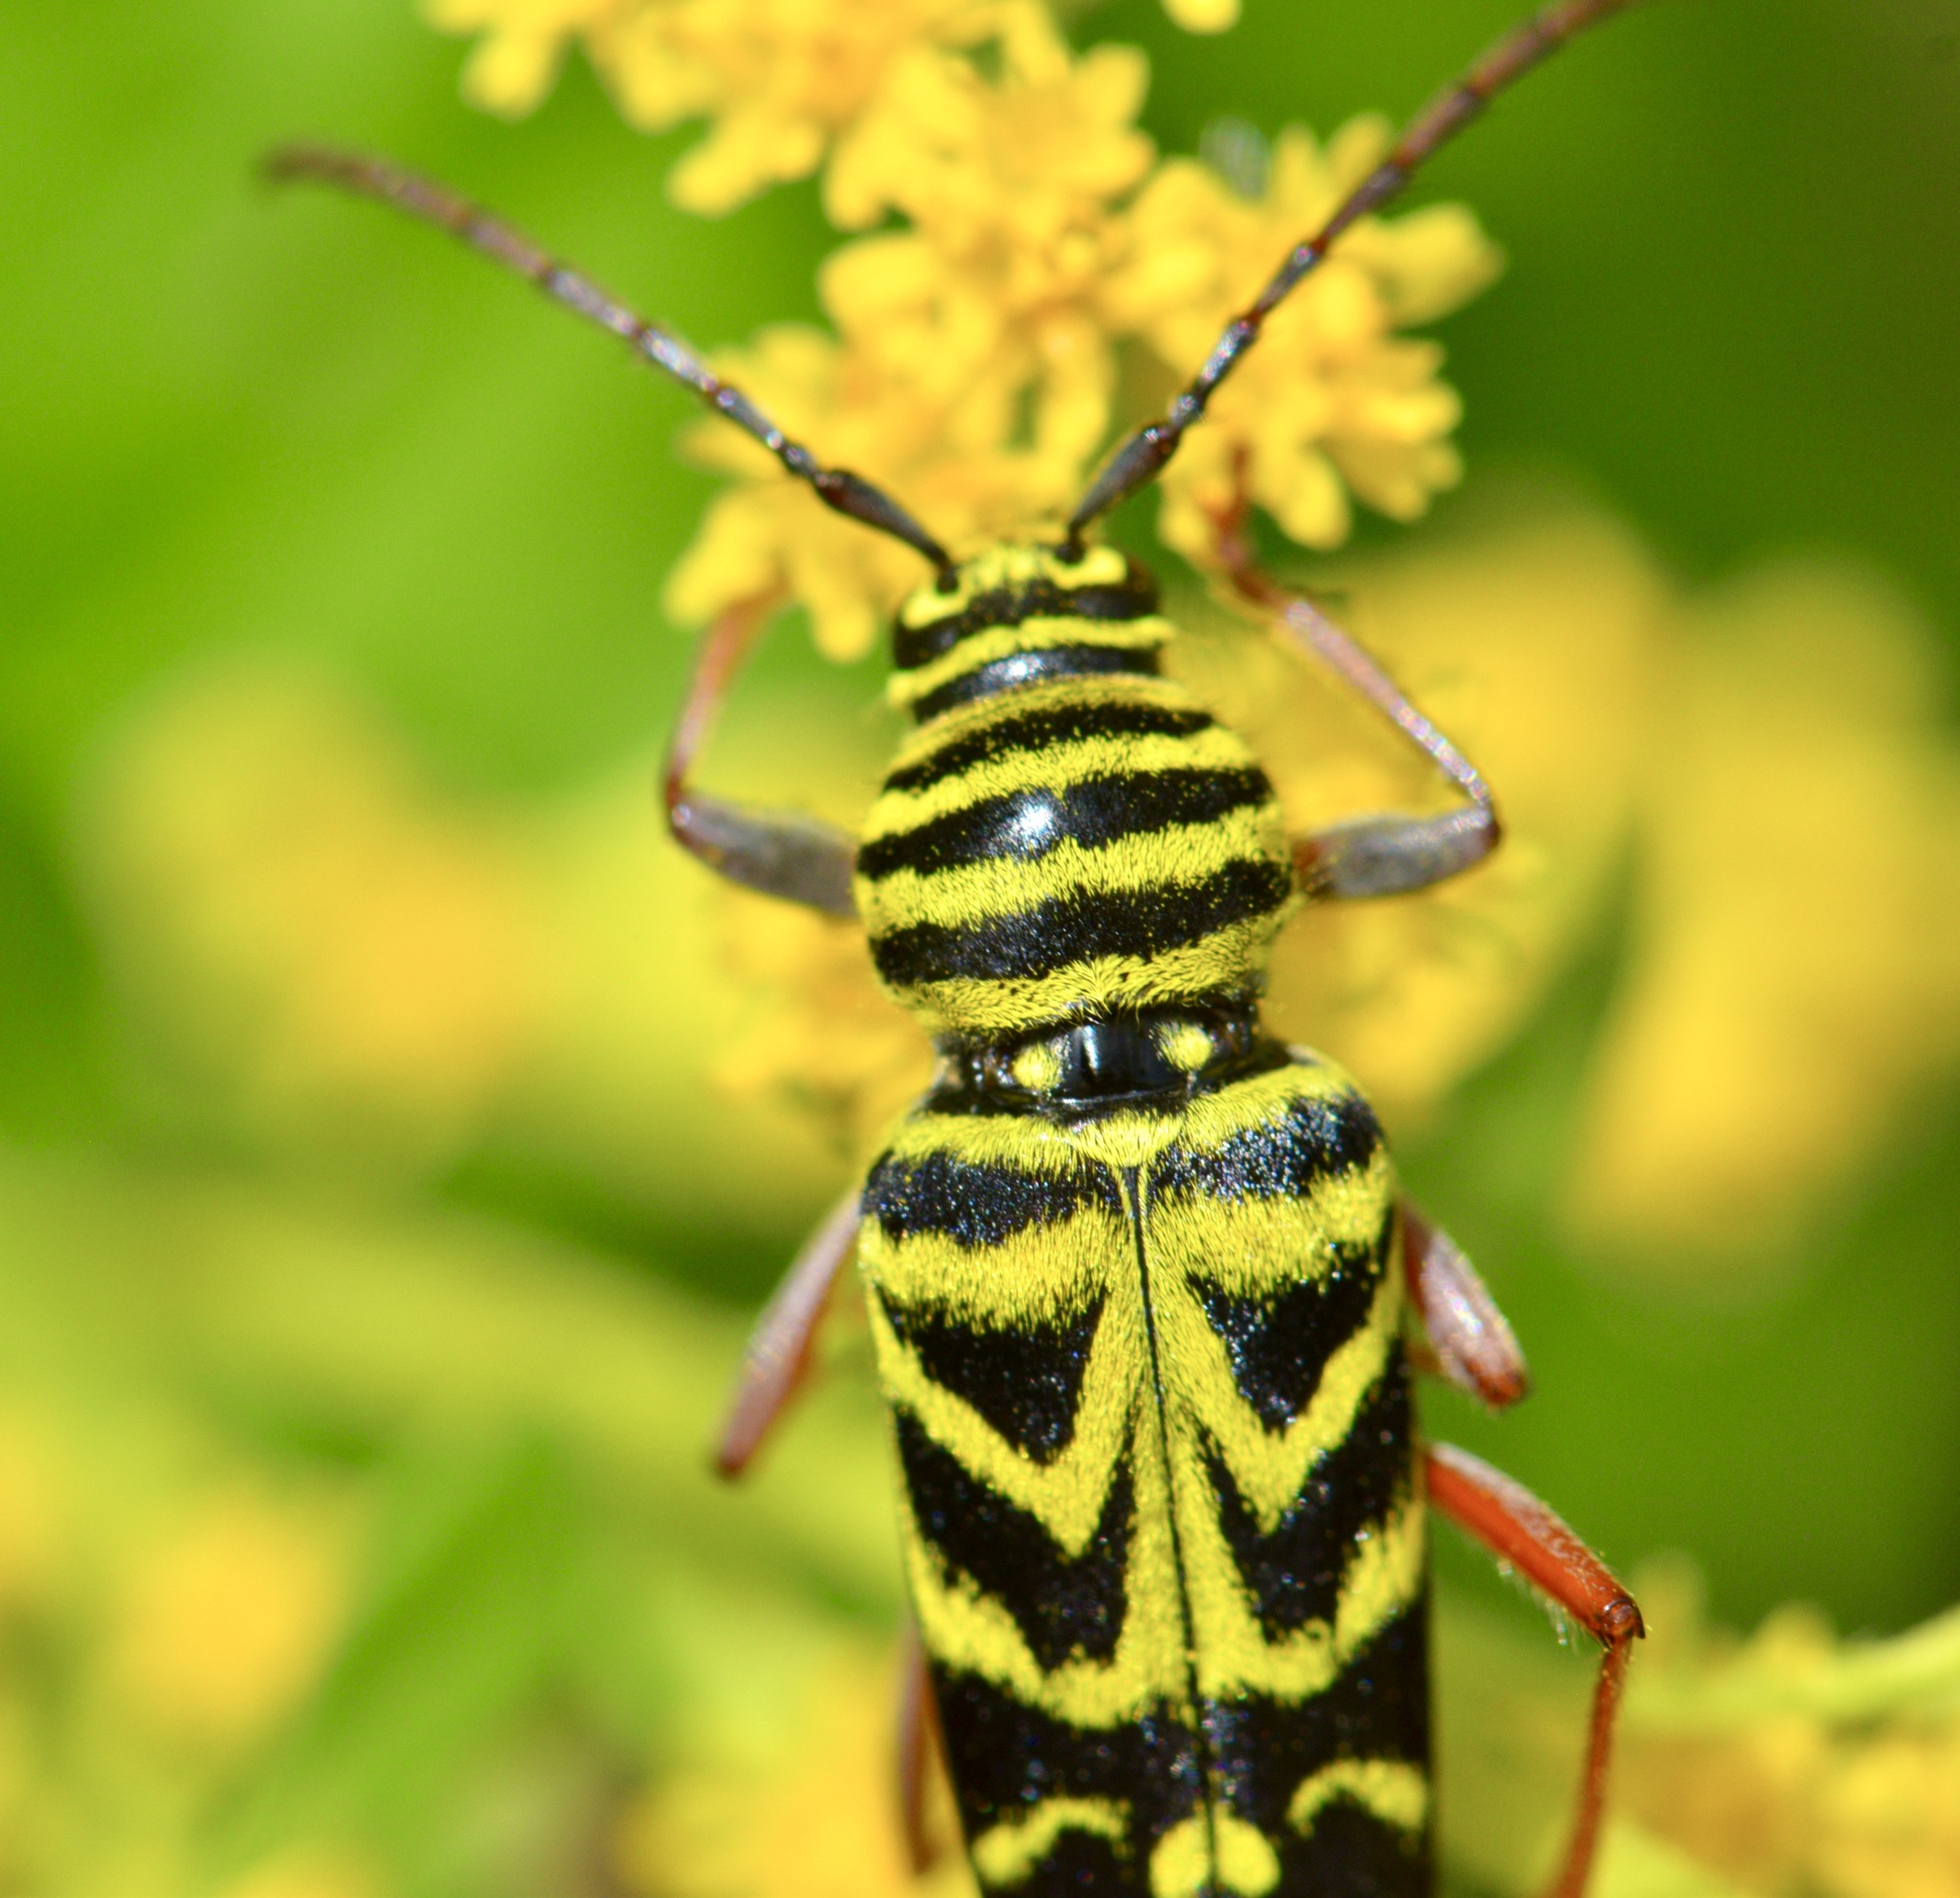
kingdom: Animalia
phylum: Arthropoda
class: Insecta
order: Coleoptera
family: Cerambycidae
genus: Megacyllene
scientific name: Megacyllene robiniae
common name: Locust borer
